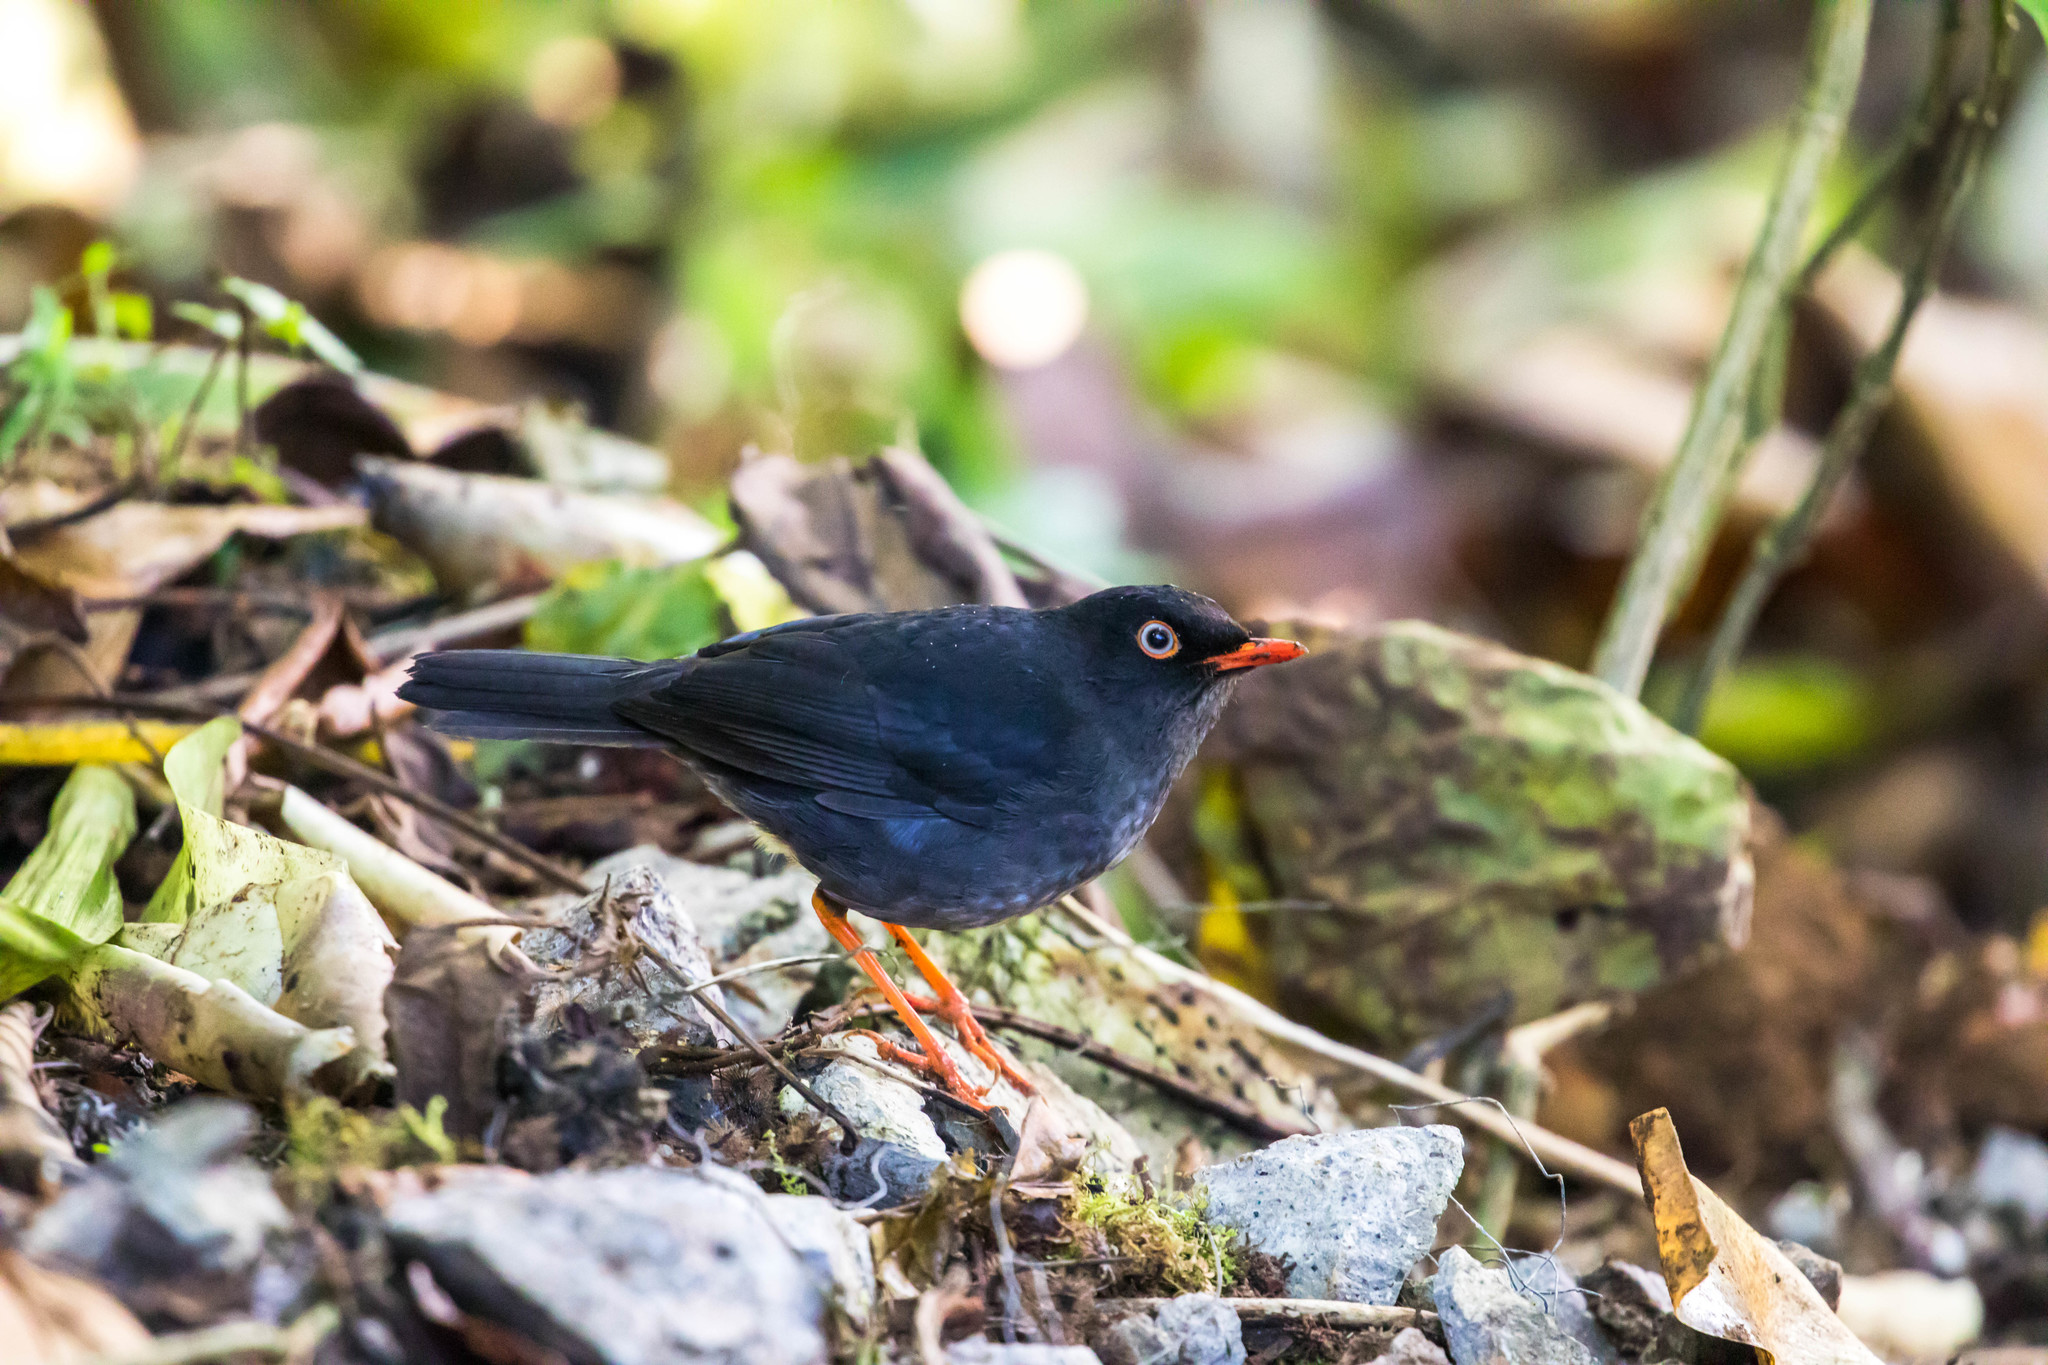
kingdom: Animalia
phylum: Chordata
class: Aves
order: Passeriformes
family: Turdidae
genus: Catharus
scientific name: Catharus fuscater
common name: Slaty-backed nightingale-thrush
